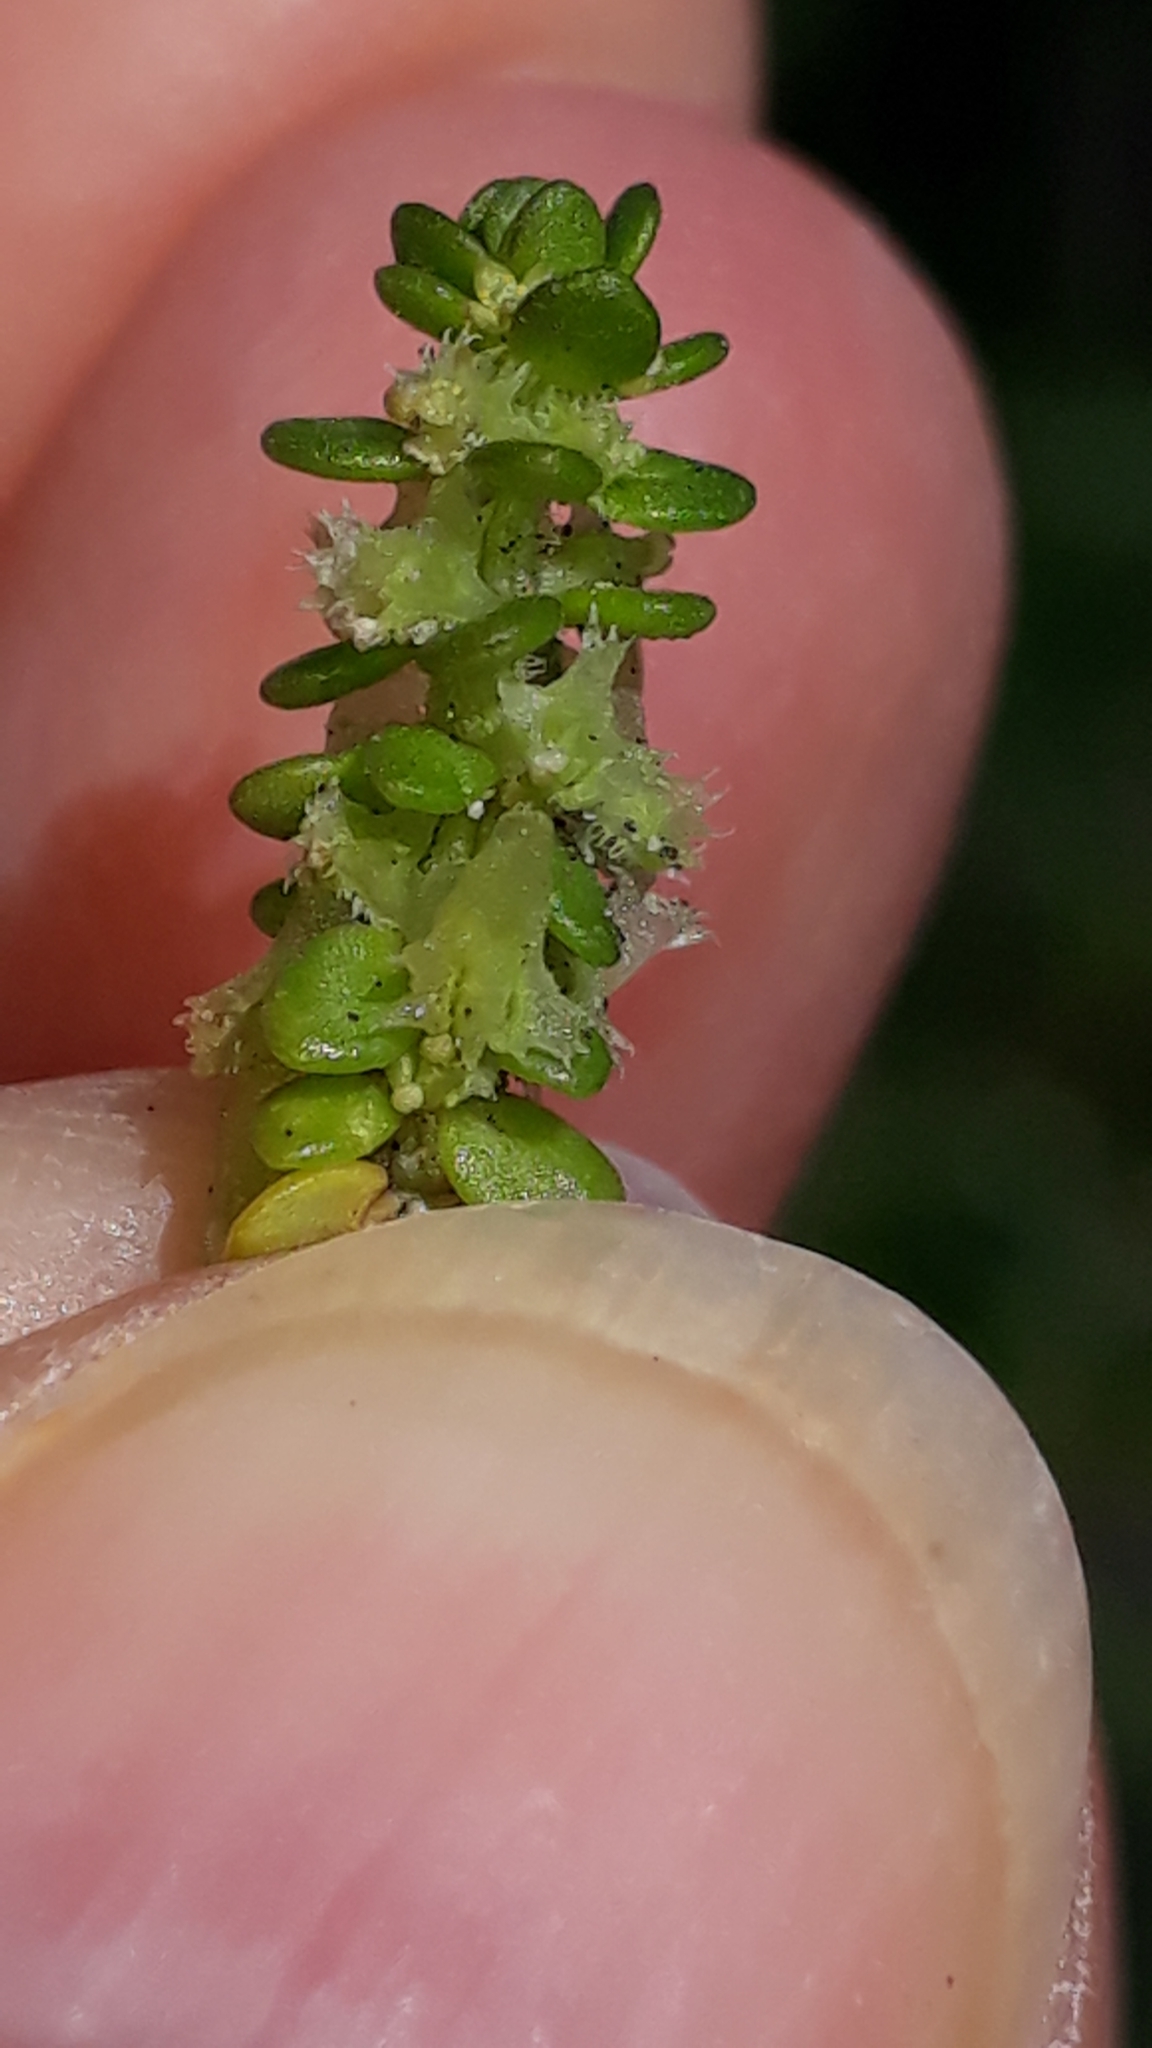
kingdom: Plantae
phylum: Tracheophyta
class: Magnoliopsida
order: Gentianales
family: Rubiaceae
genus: Valantia
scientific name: Valantia muralis
